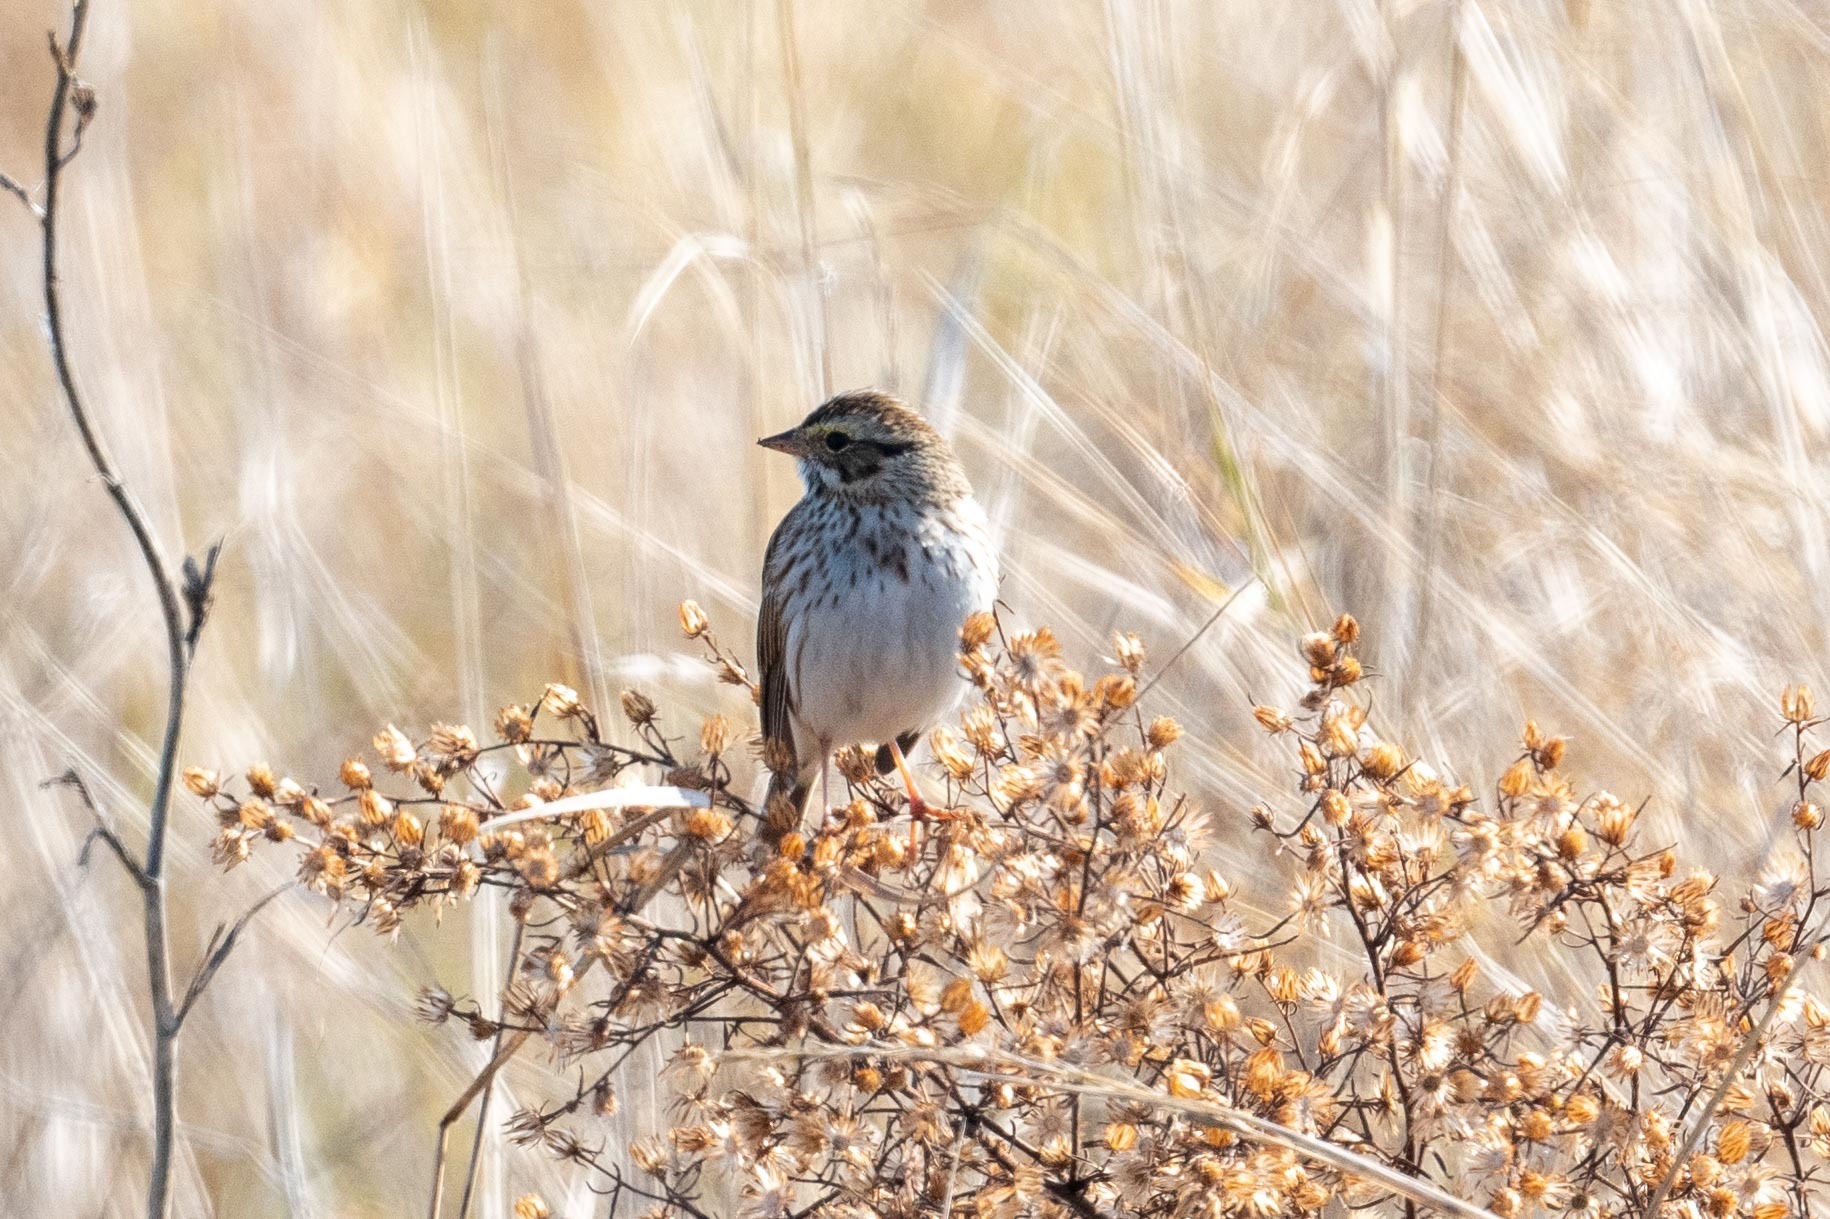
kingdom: Animalia
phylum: Chordata
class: Aves
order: Passeriformes
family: Passerellidae
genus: Passerculus
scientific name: Passerculus sandwichensis
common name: Savannah sparrow
